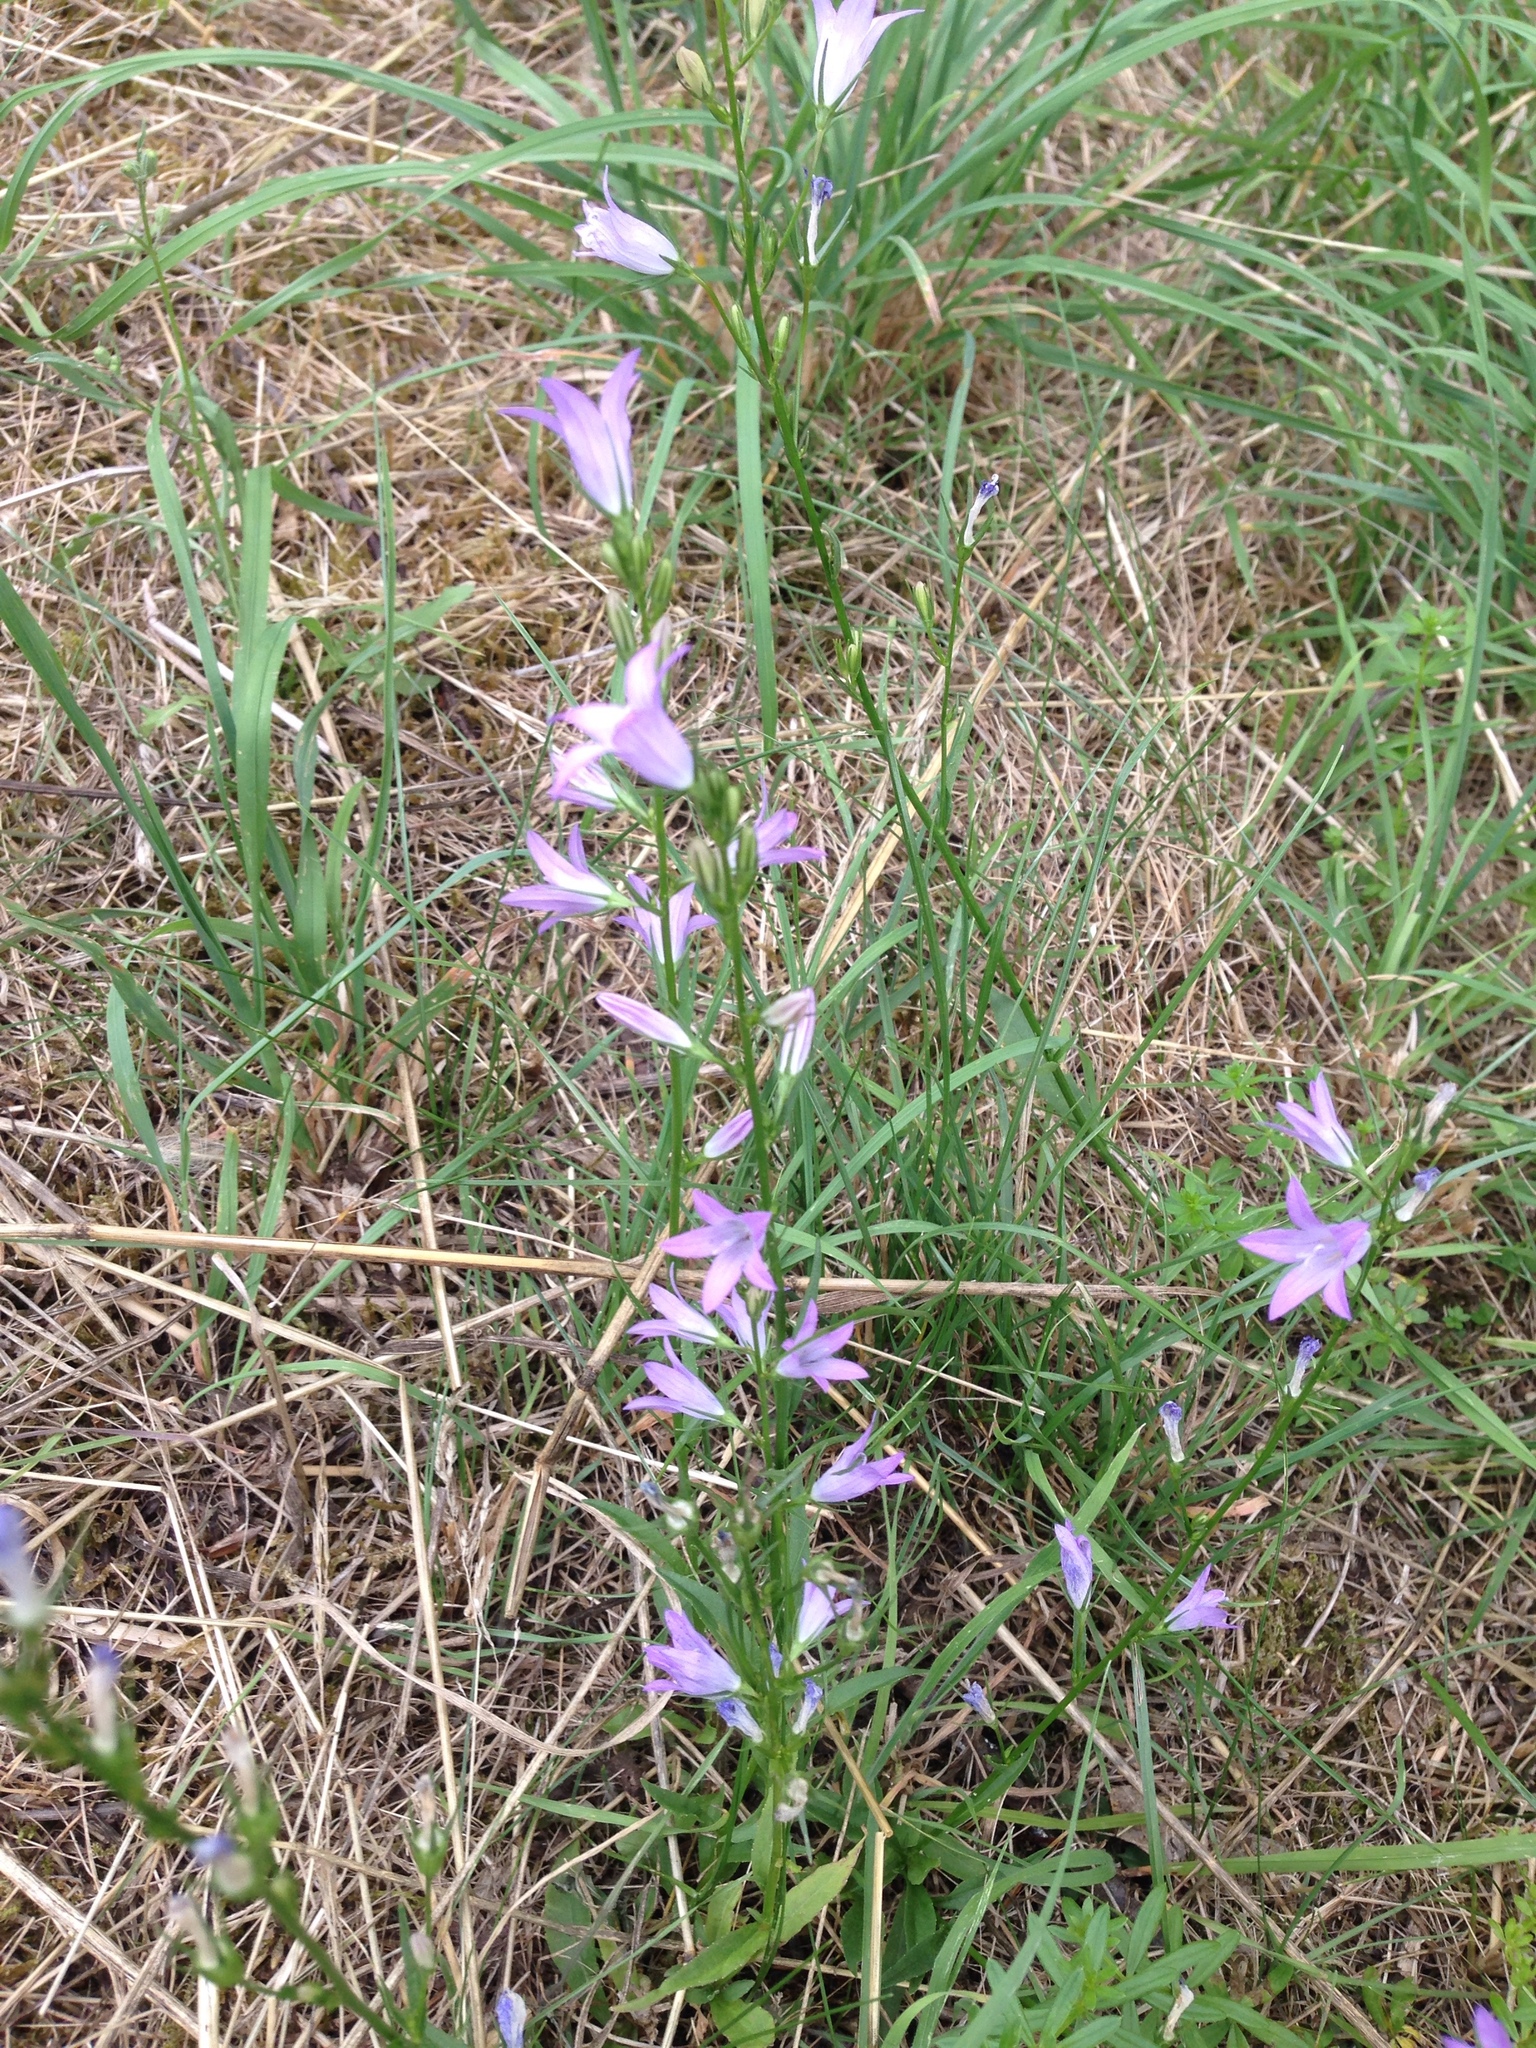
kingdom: Plantae
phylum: Tracheophyta
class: Magnoliopsida
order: Asterales
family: Campanulaceae
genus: Campanula
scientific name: Campanula rapunculus
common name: Rampion bellflower
